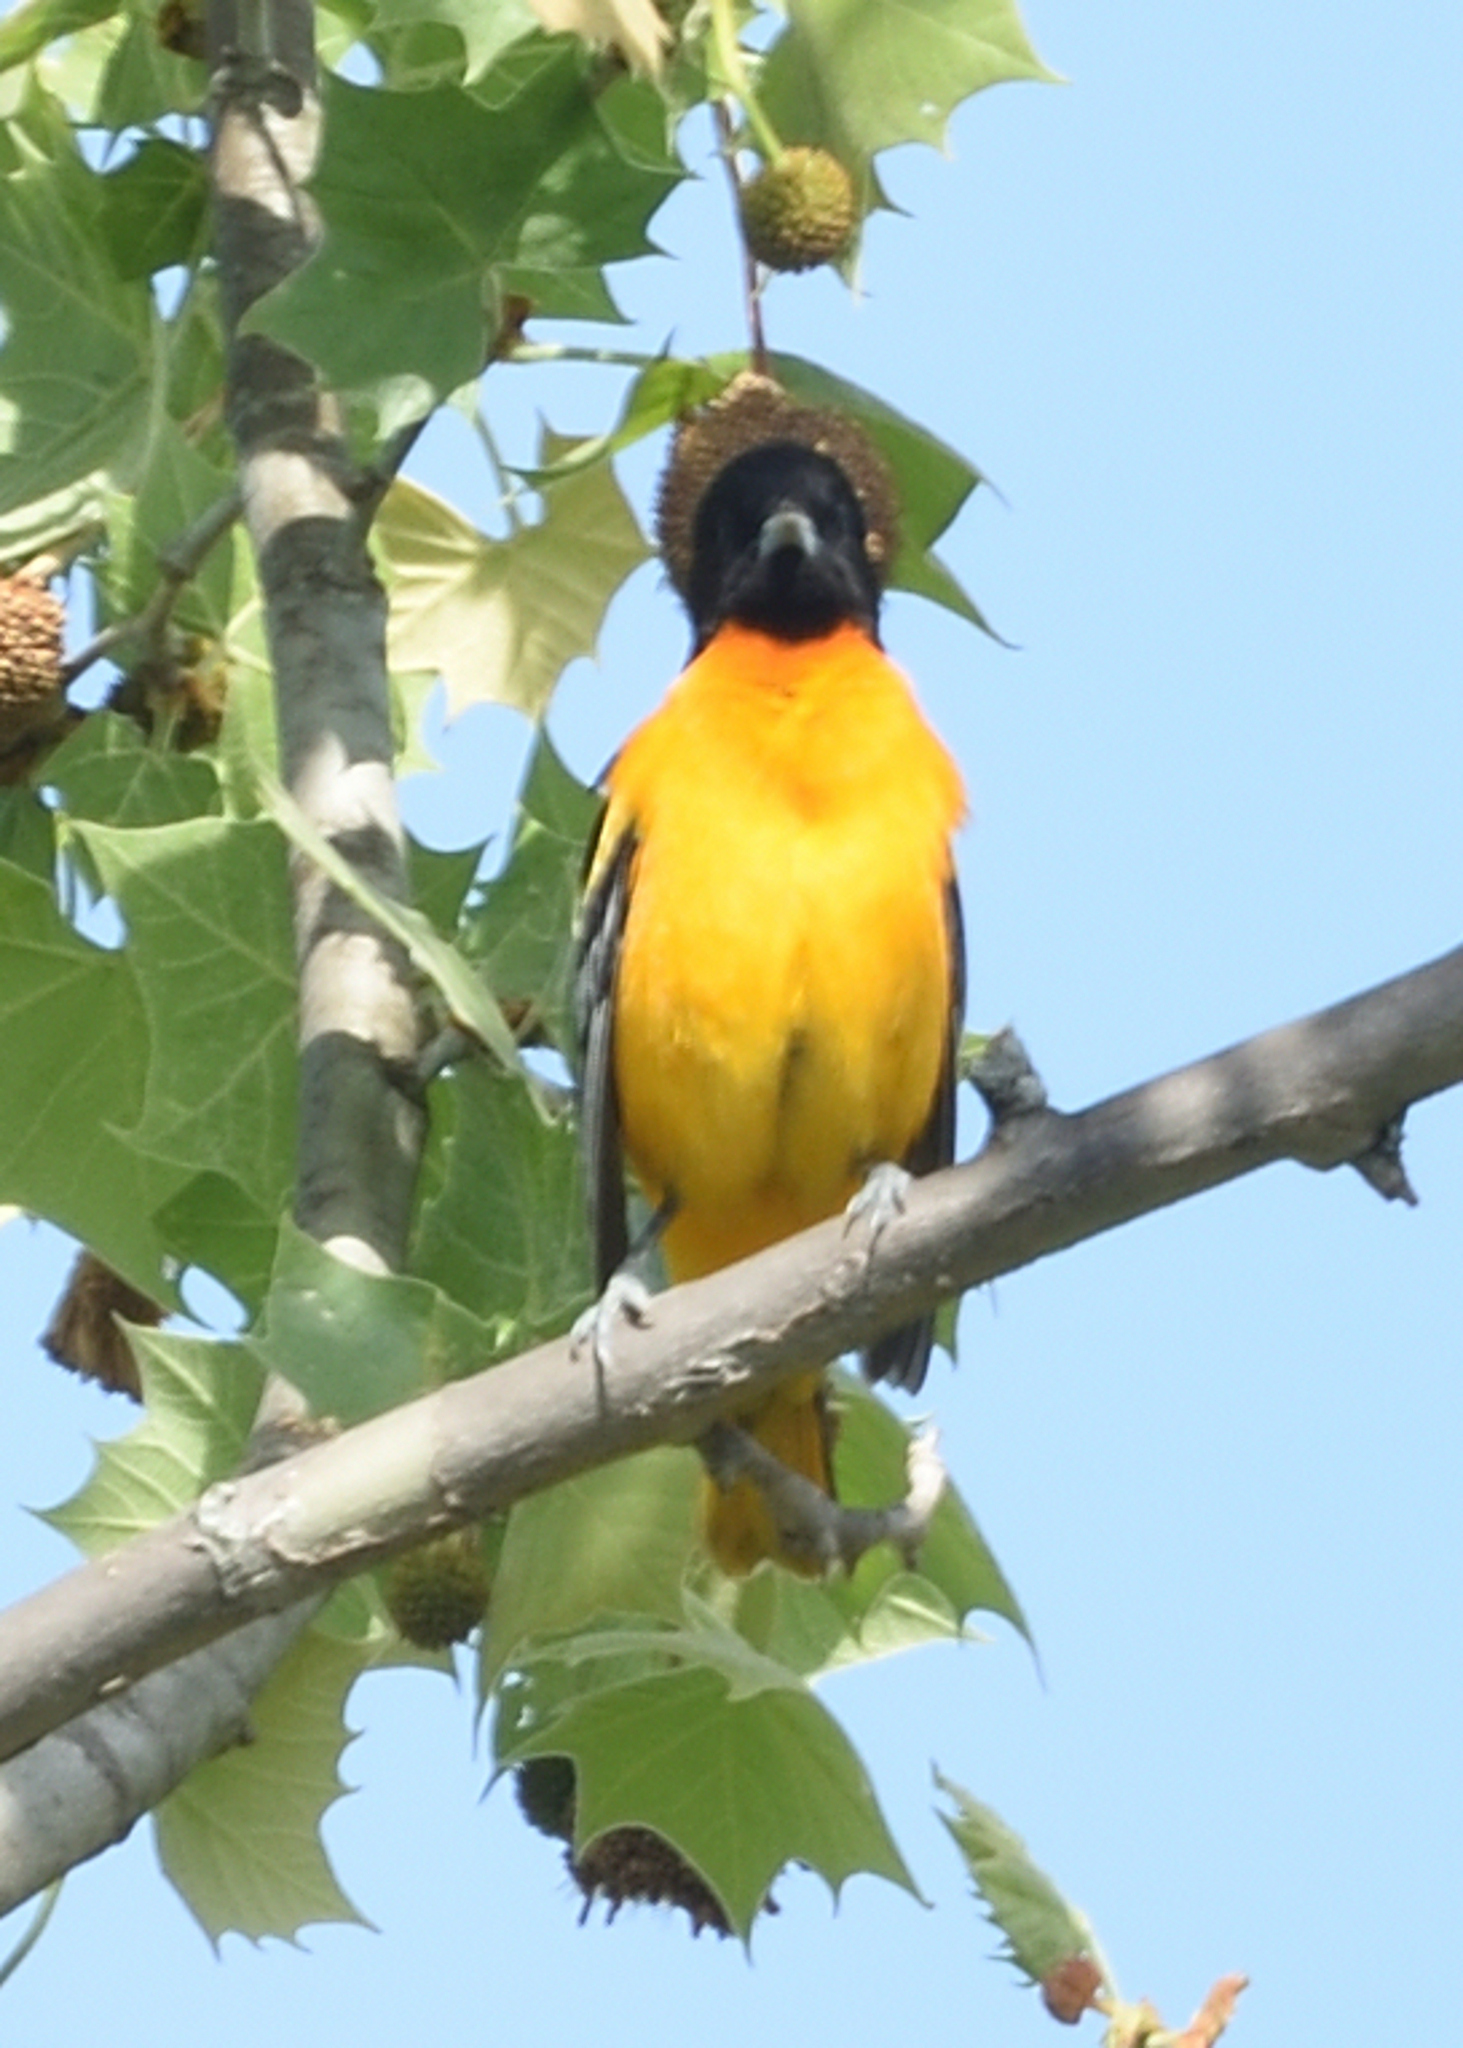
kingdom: Animalia
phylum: Chordata
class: Aves
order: Passeriformes
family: Icteridae
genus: Icterus
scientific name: Icterus galbula
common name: Baltimore oriole
